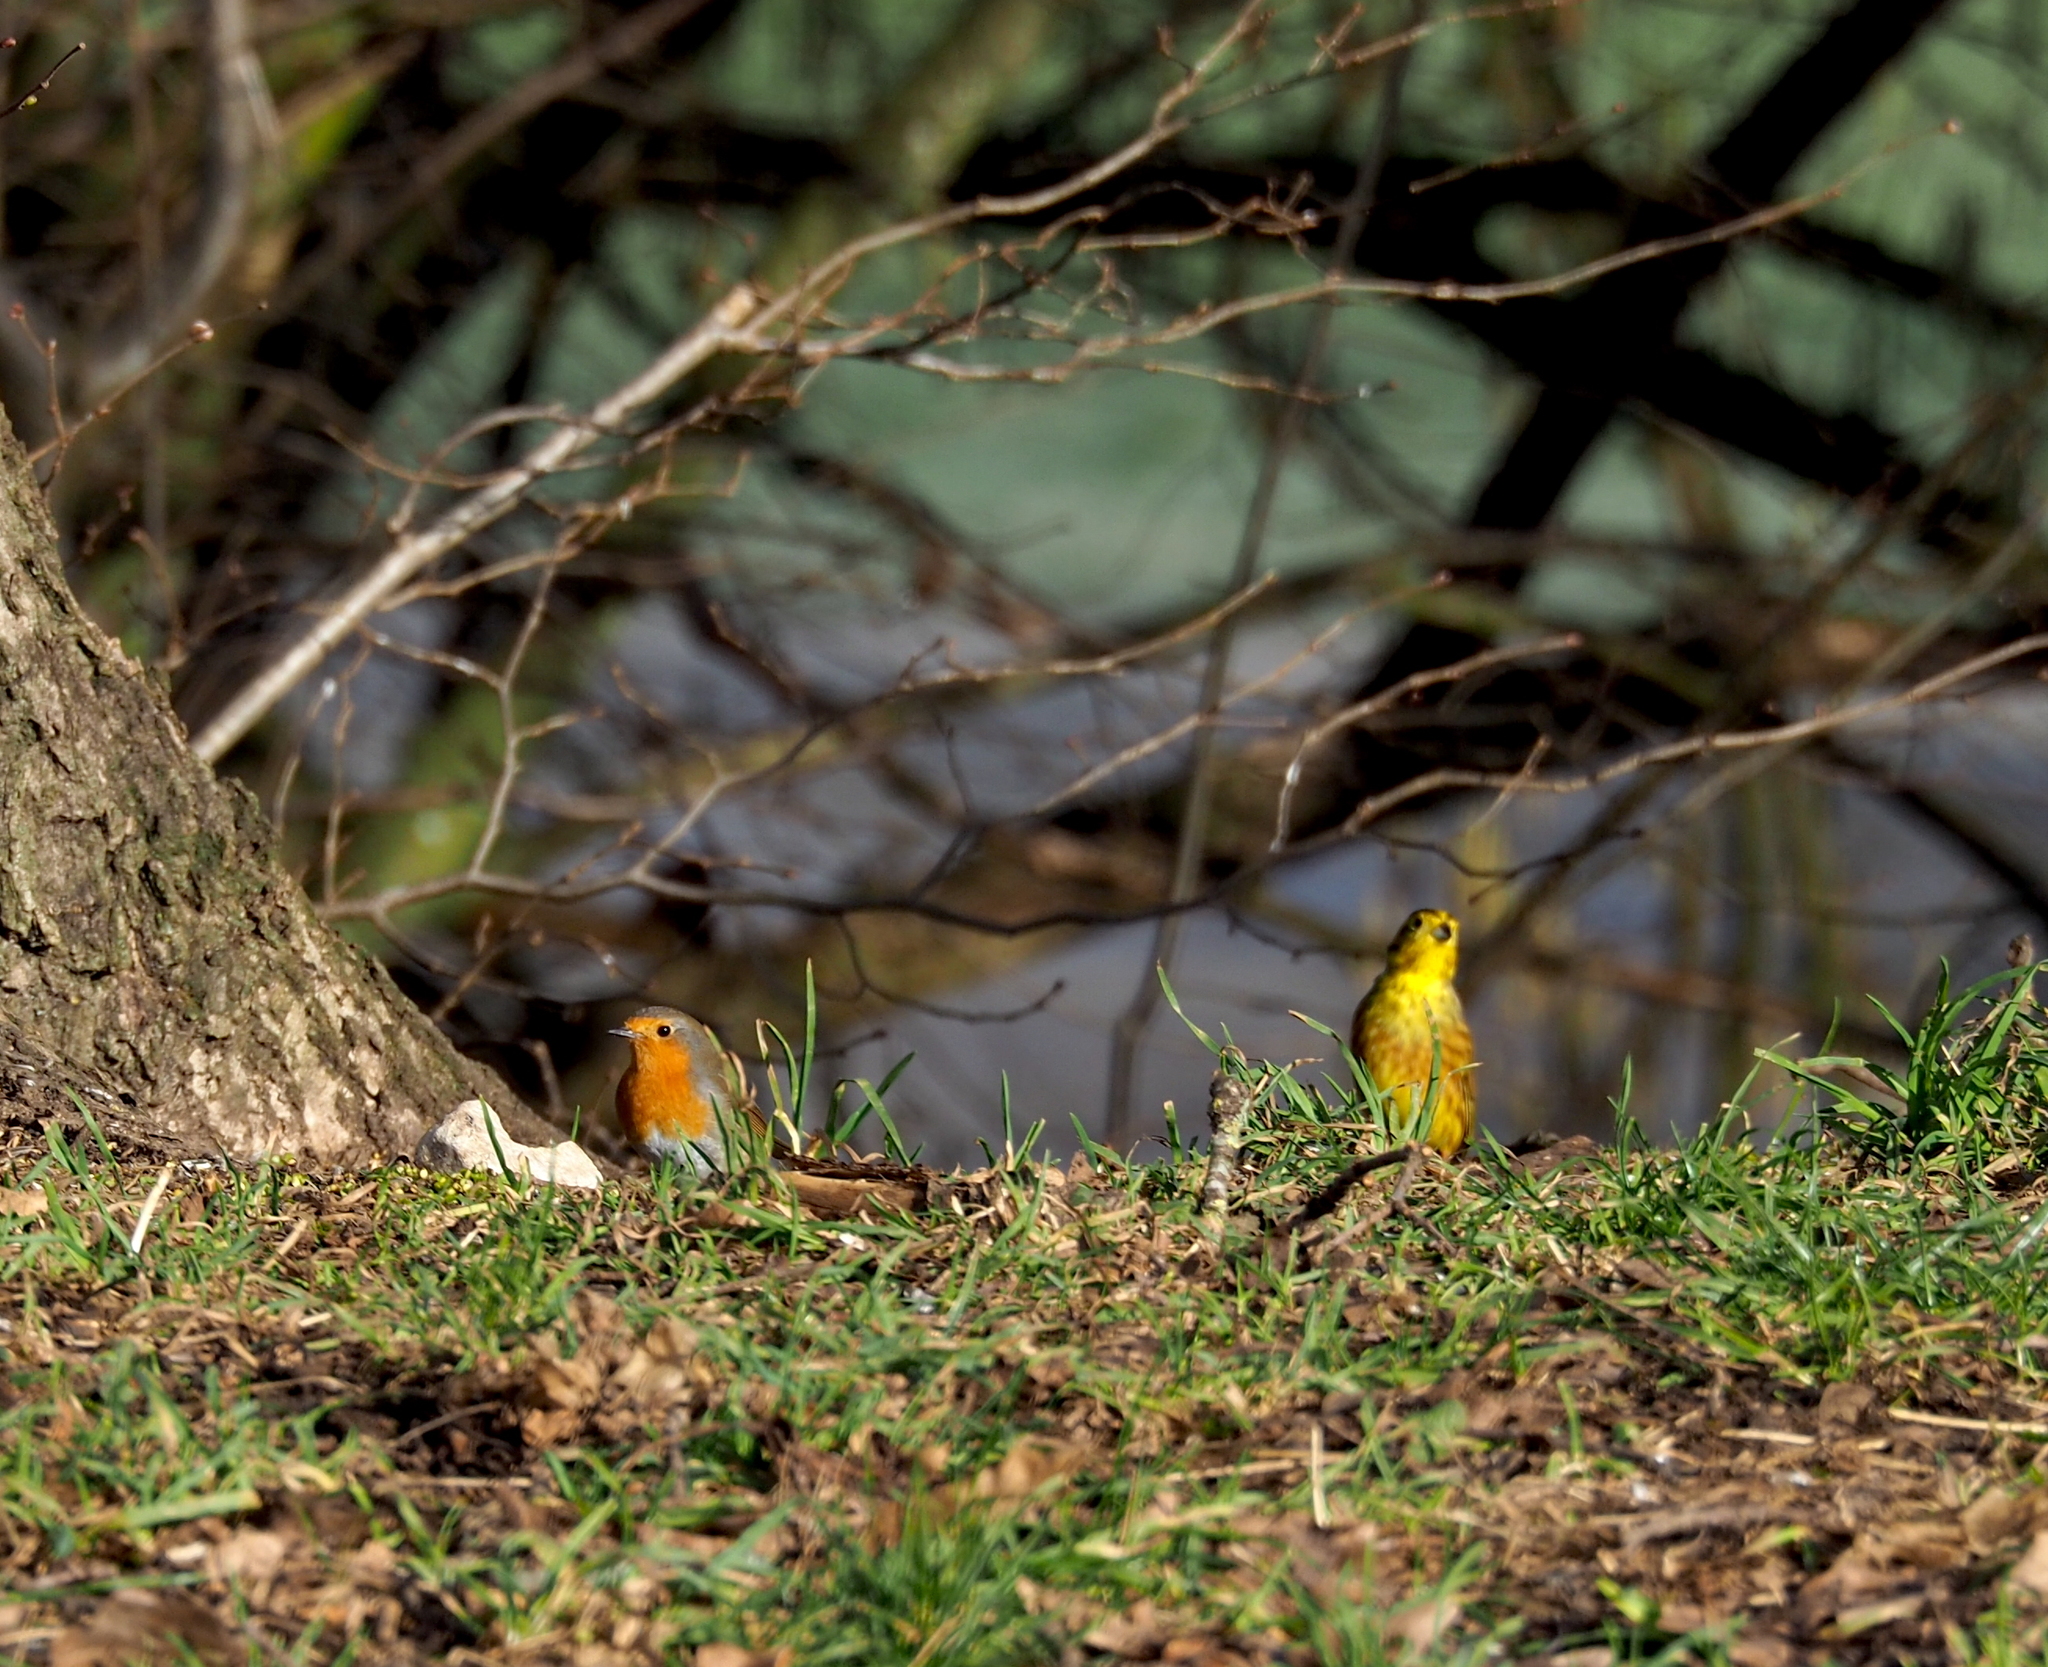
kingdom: Animalia
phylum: Chordata
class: Aves
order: Passeriformes
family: Emberizidae
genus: Emberiza
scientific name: Emberiza citrinella
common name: Yellowhammer
